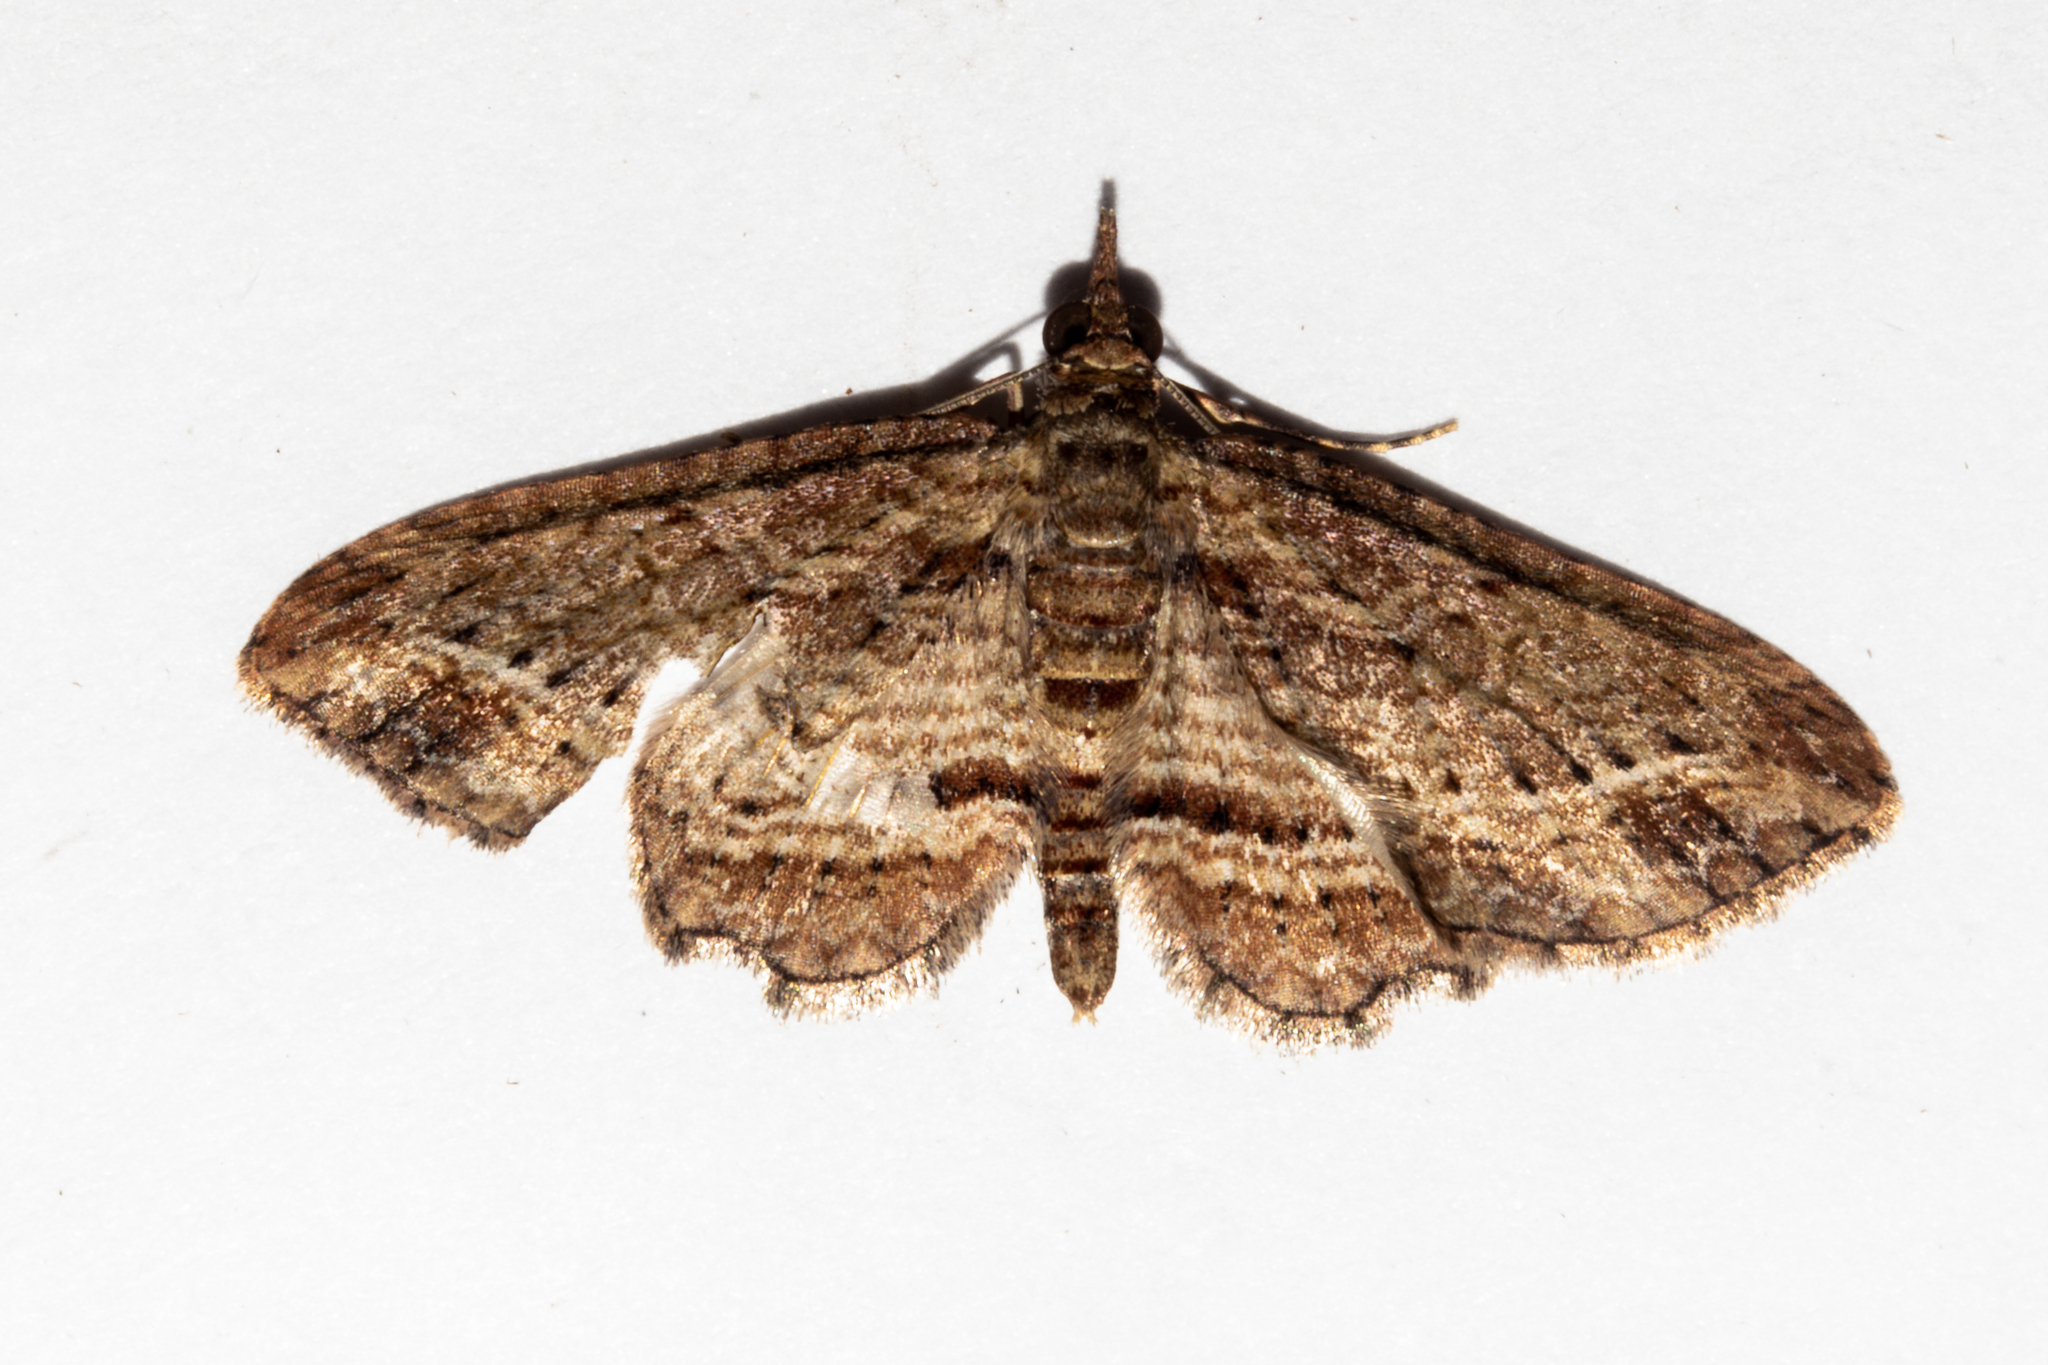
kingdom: Animalia
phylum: Arthropoda
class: Insecta
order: Lepidoptera
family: Geometridae
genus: Chloroclystis
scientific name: Chloroclystis filata
